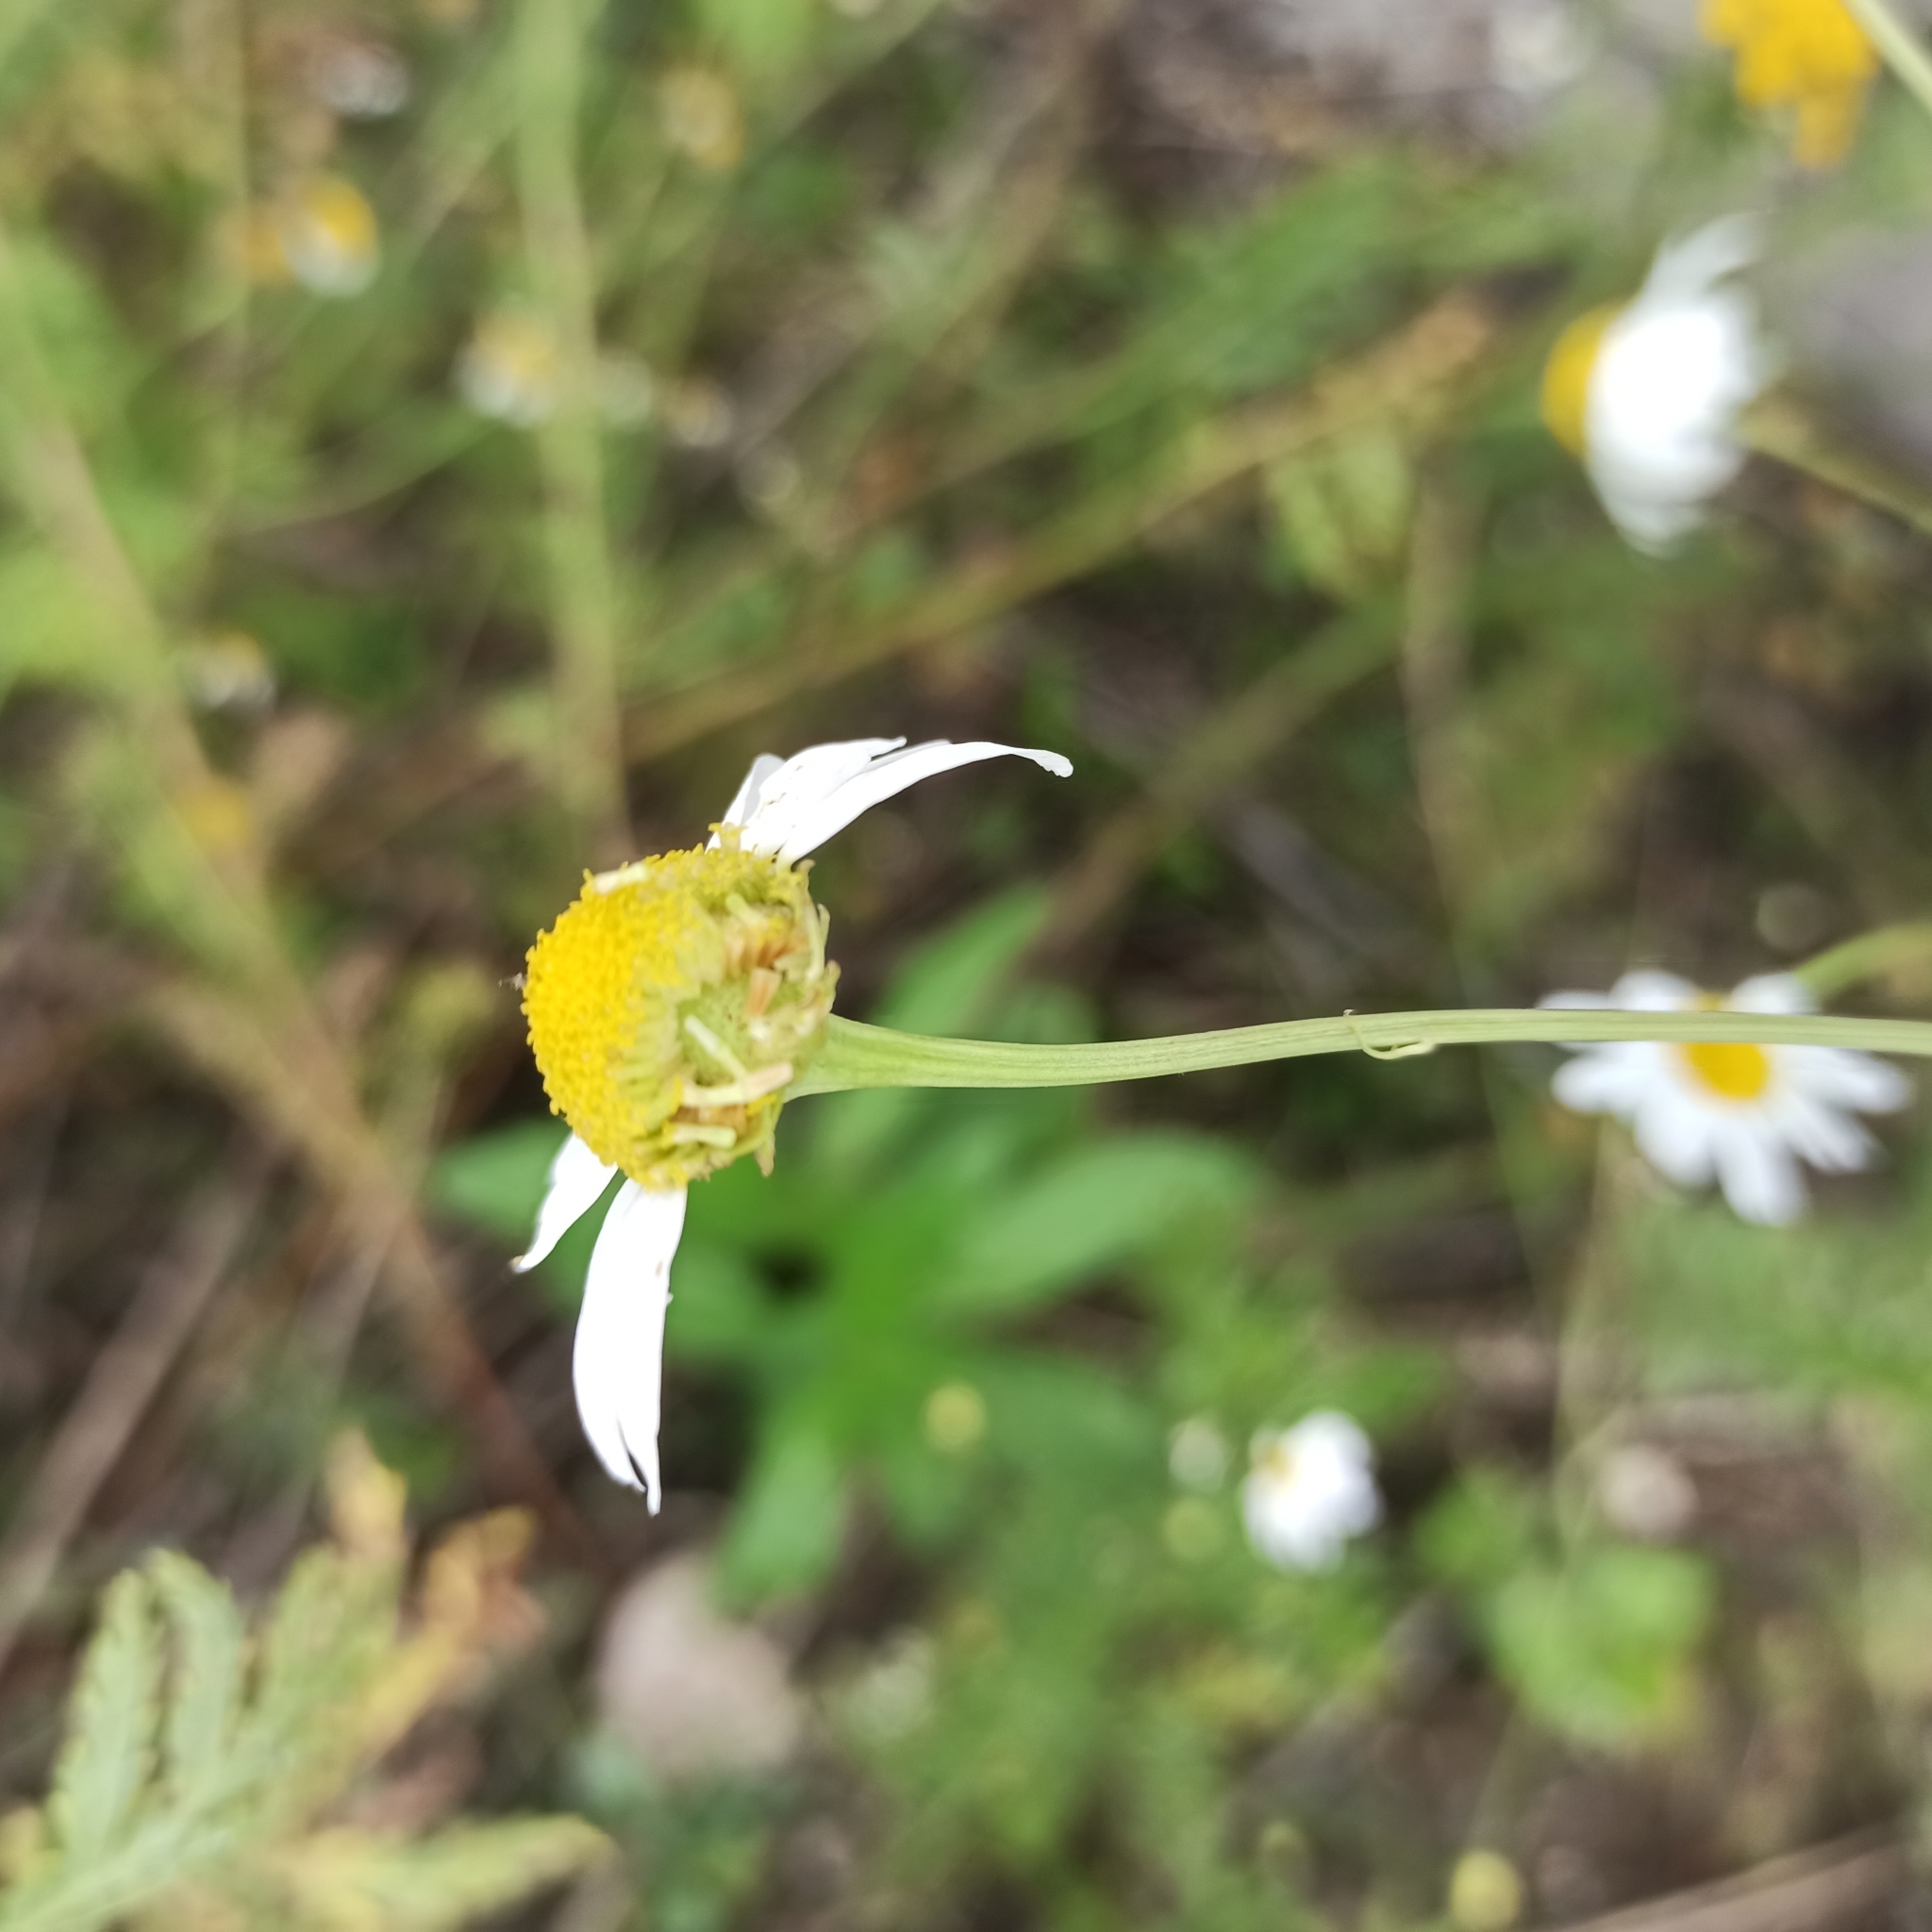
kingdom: Plantae
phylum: Tracheophyta
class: Magnoliopsida
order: Asterales
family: Asteraceae
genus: Tripleurospermum
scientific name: Tripleurospermum inodorum
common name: Scentless mayweed
